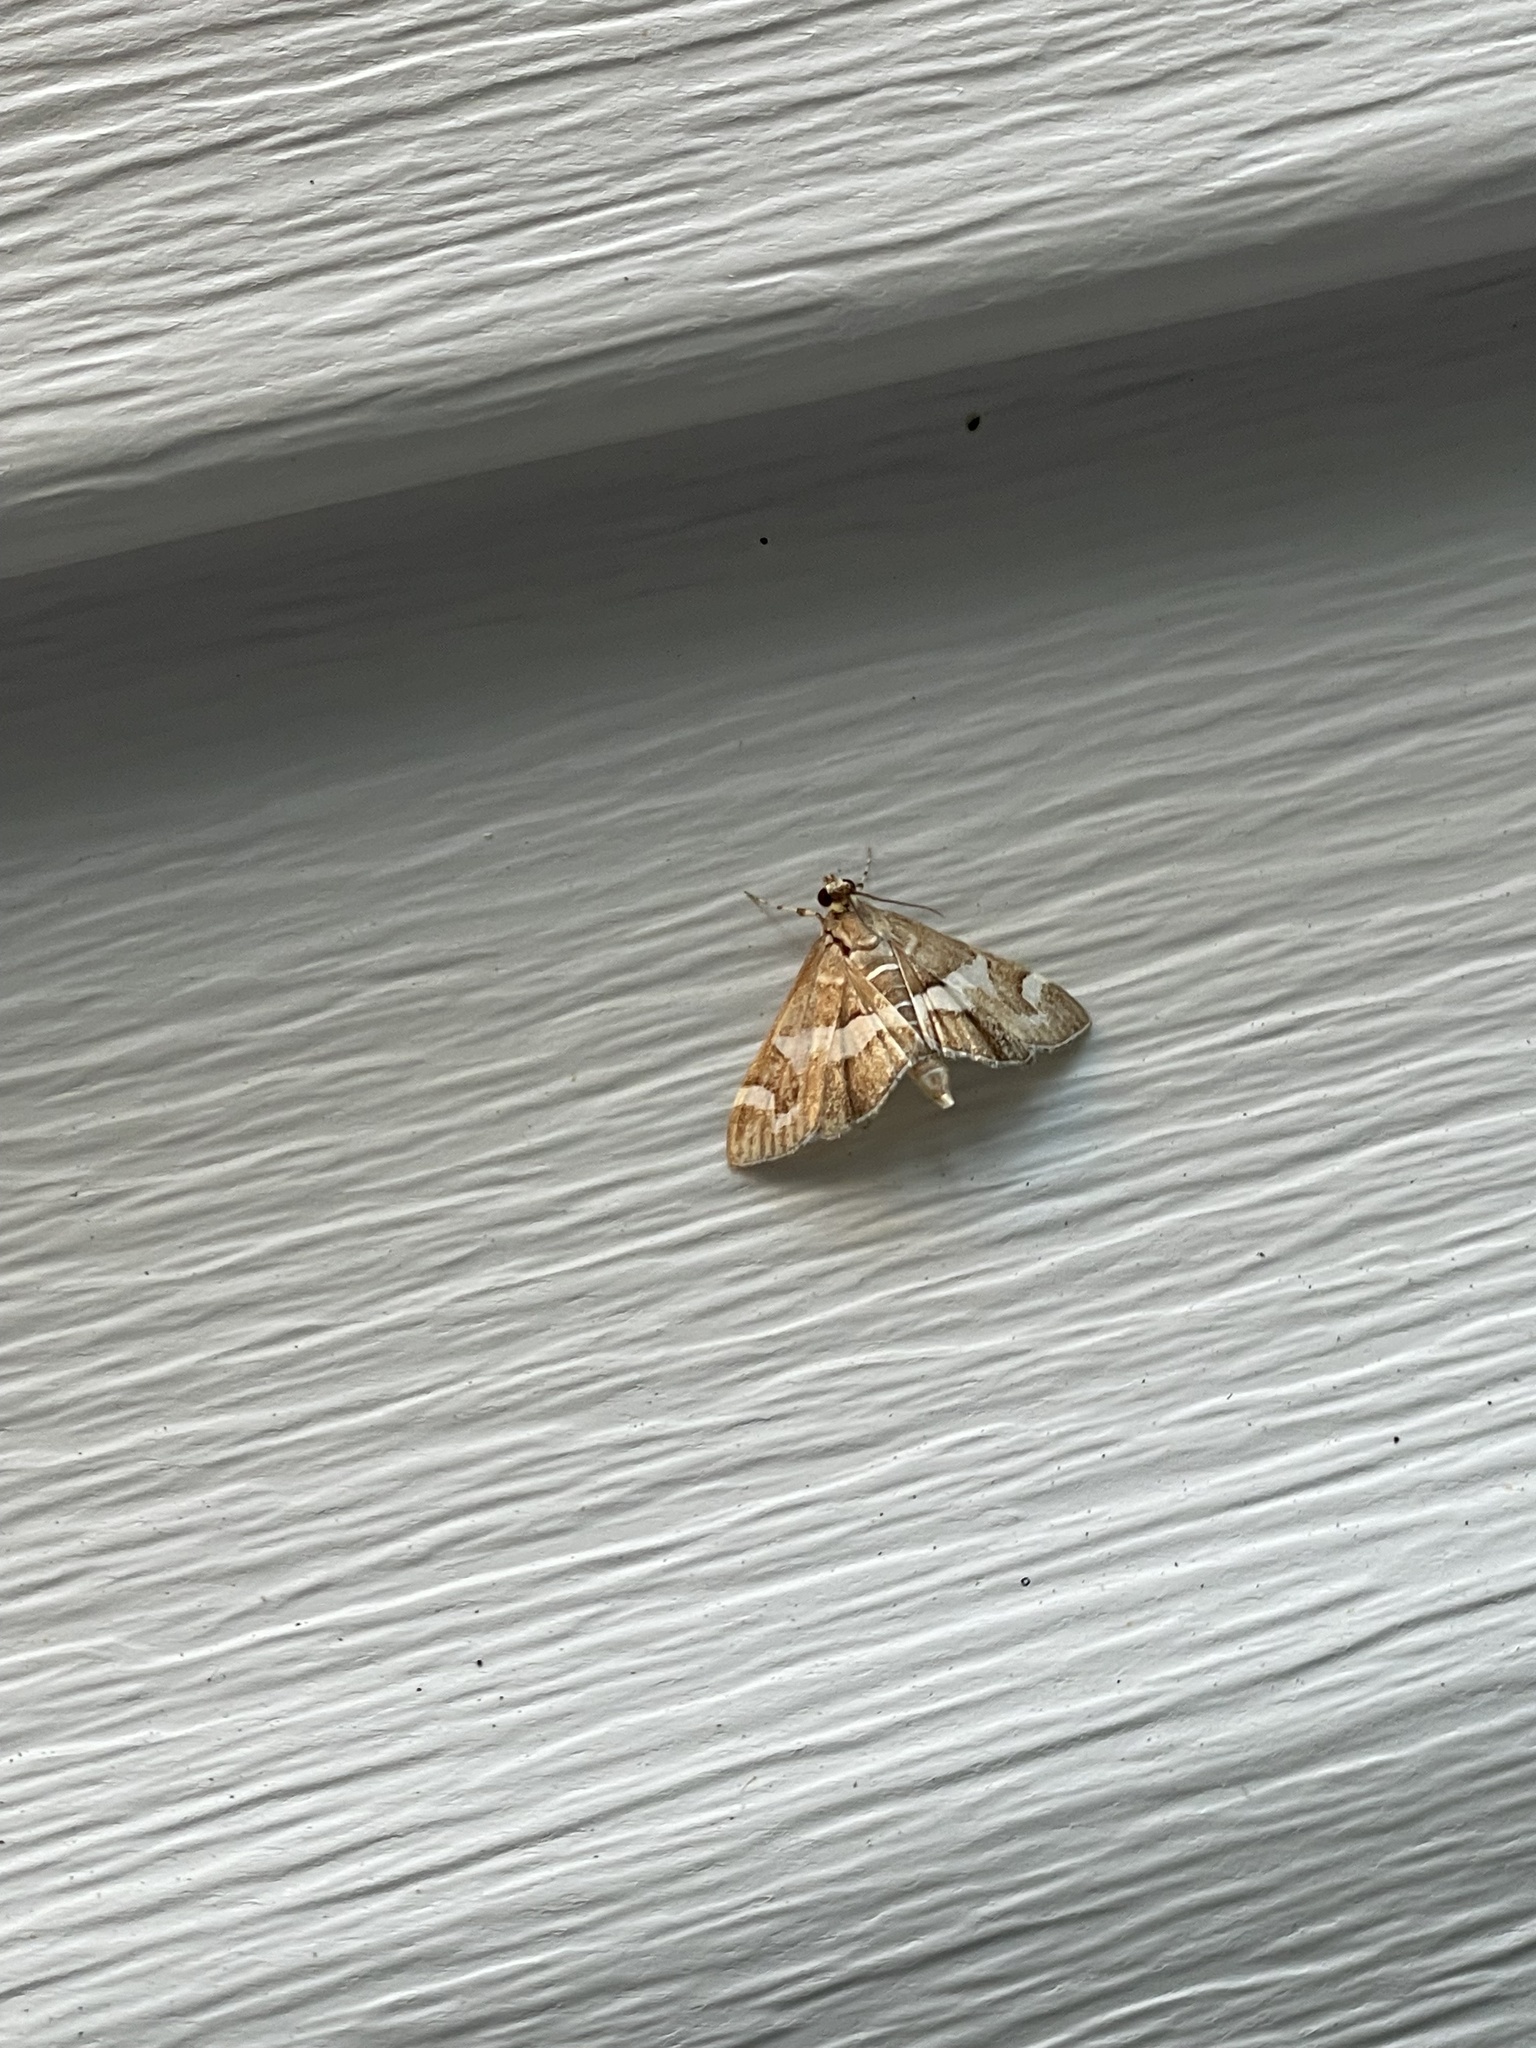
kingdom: Animalia
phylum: Arthropoda
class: Insecta
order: Lepidoptera
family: Crambidae
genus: Spoladea
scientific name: Spoladea recurvalis
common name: Beet webworm moth
